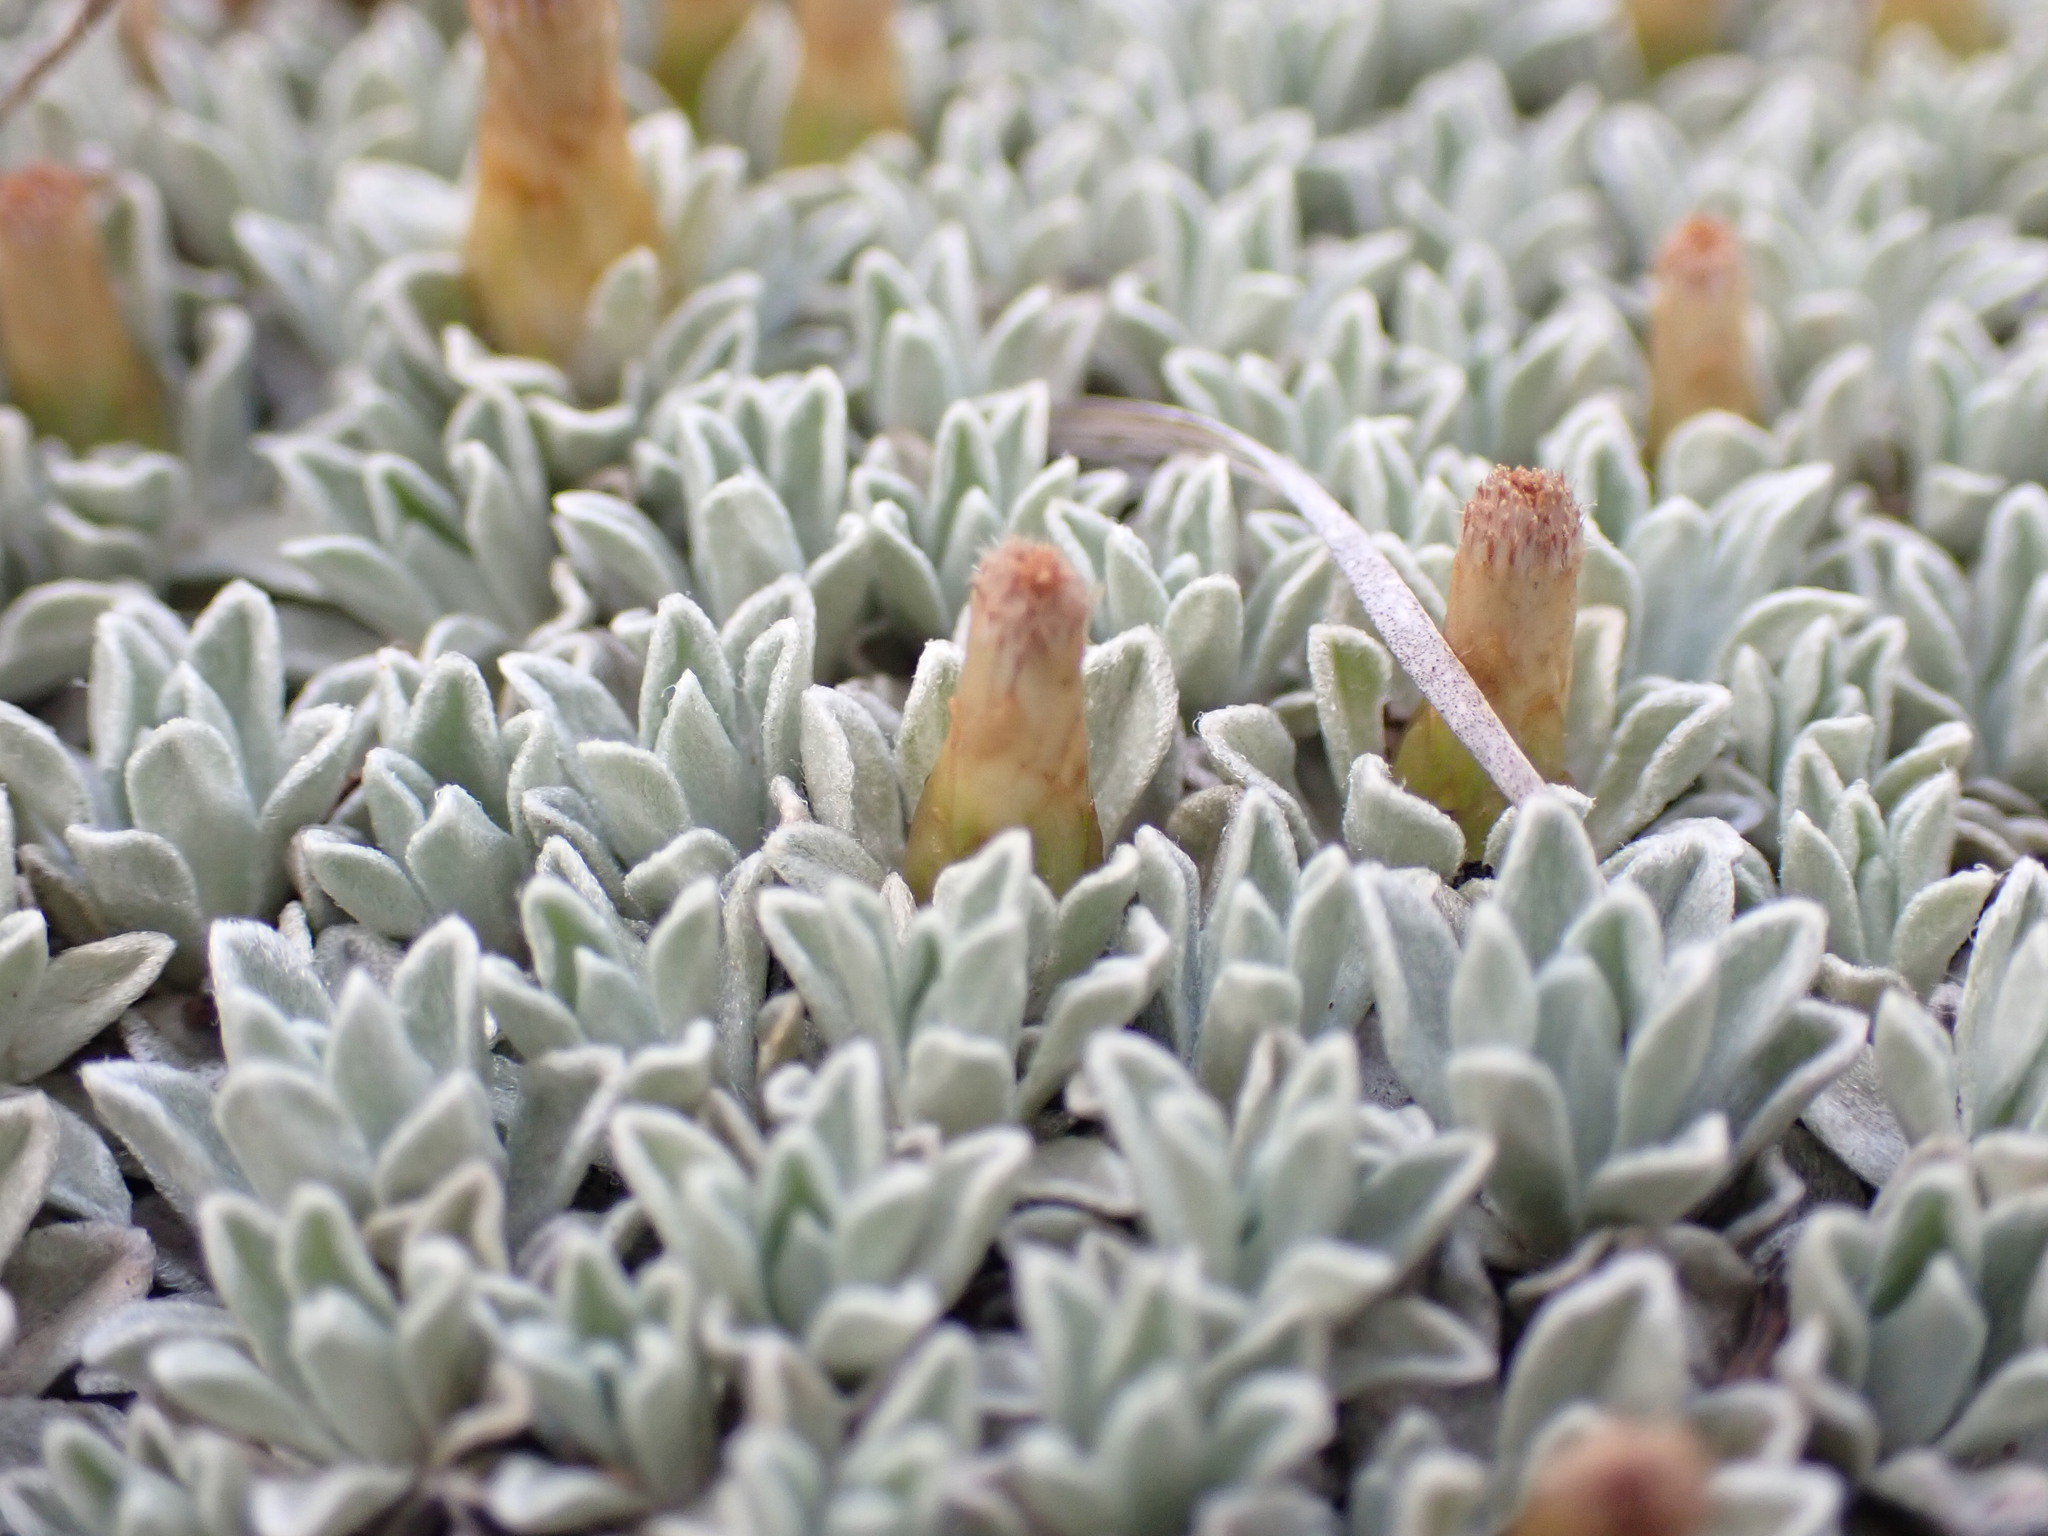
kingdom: Plantae
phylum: Tracheophyta
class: Magnoliopsida
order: Asterales
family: Asteraceae
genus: Argyrotegium
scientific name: Argyrotegium nitidulum
